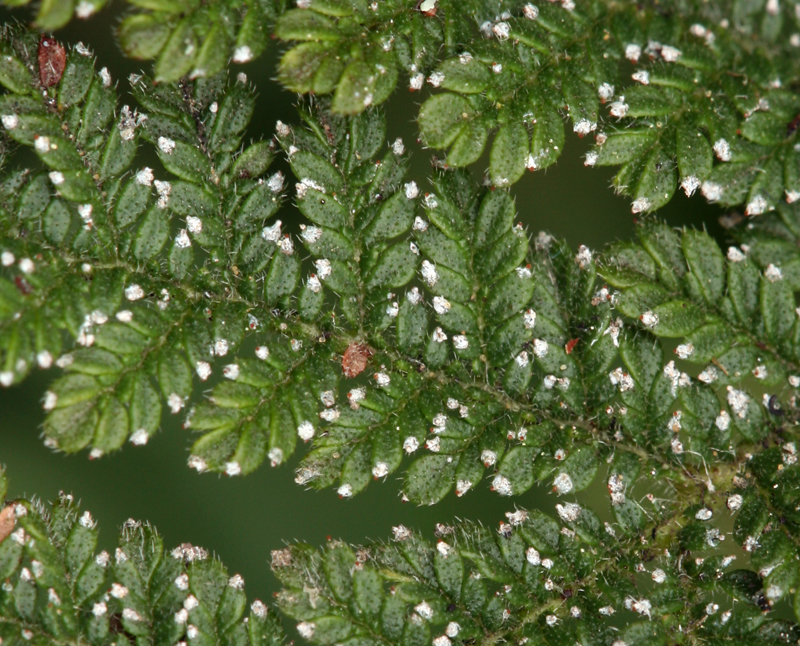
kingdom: Plantae
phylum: Tracheophyta
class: Magnoliopsida
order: Rosales
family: Rosaceae
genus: Chamaebatia
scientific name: Chamaebatia foliolosa
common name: Mountain misery
